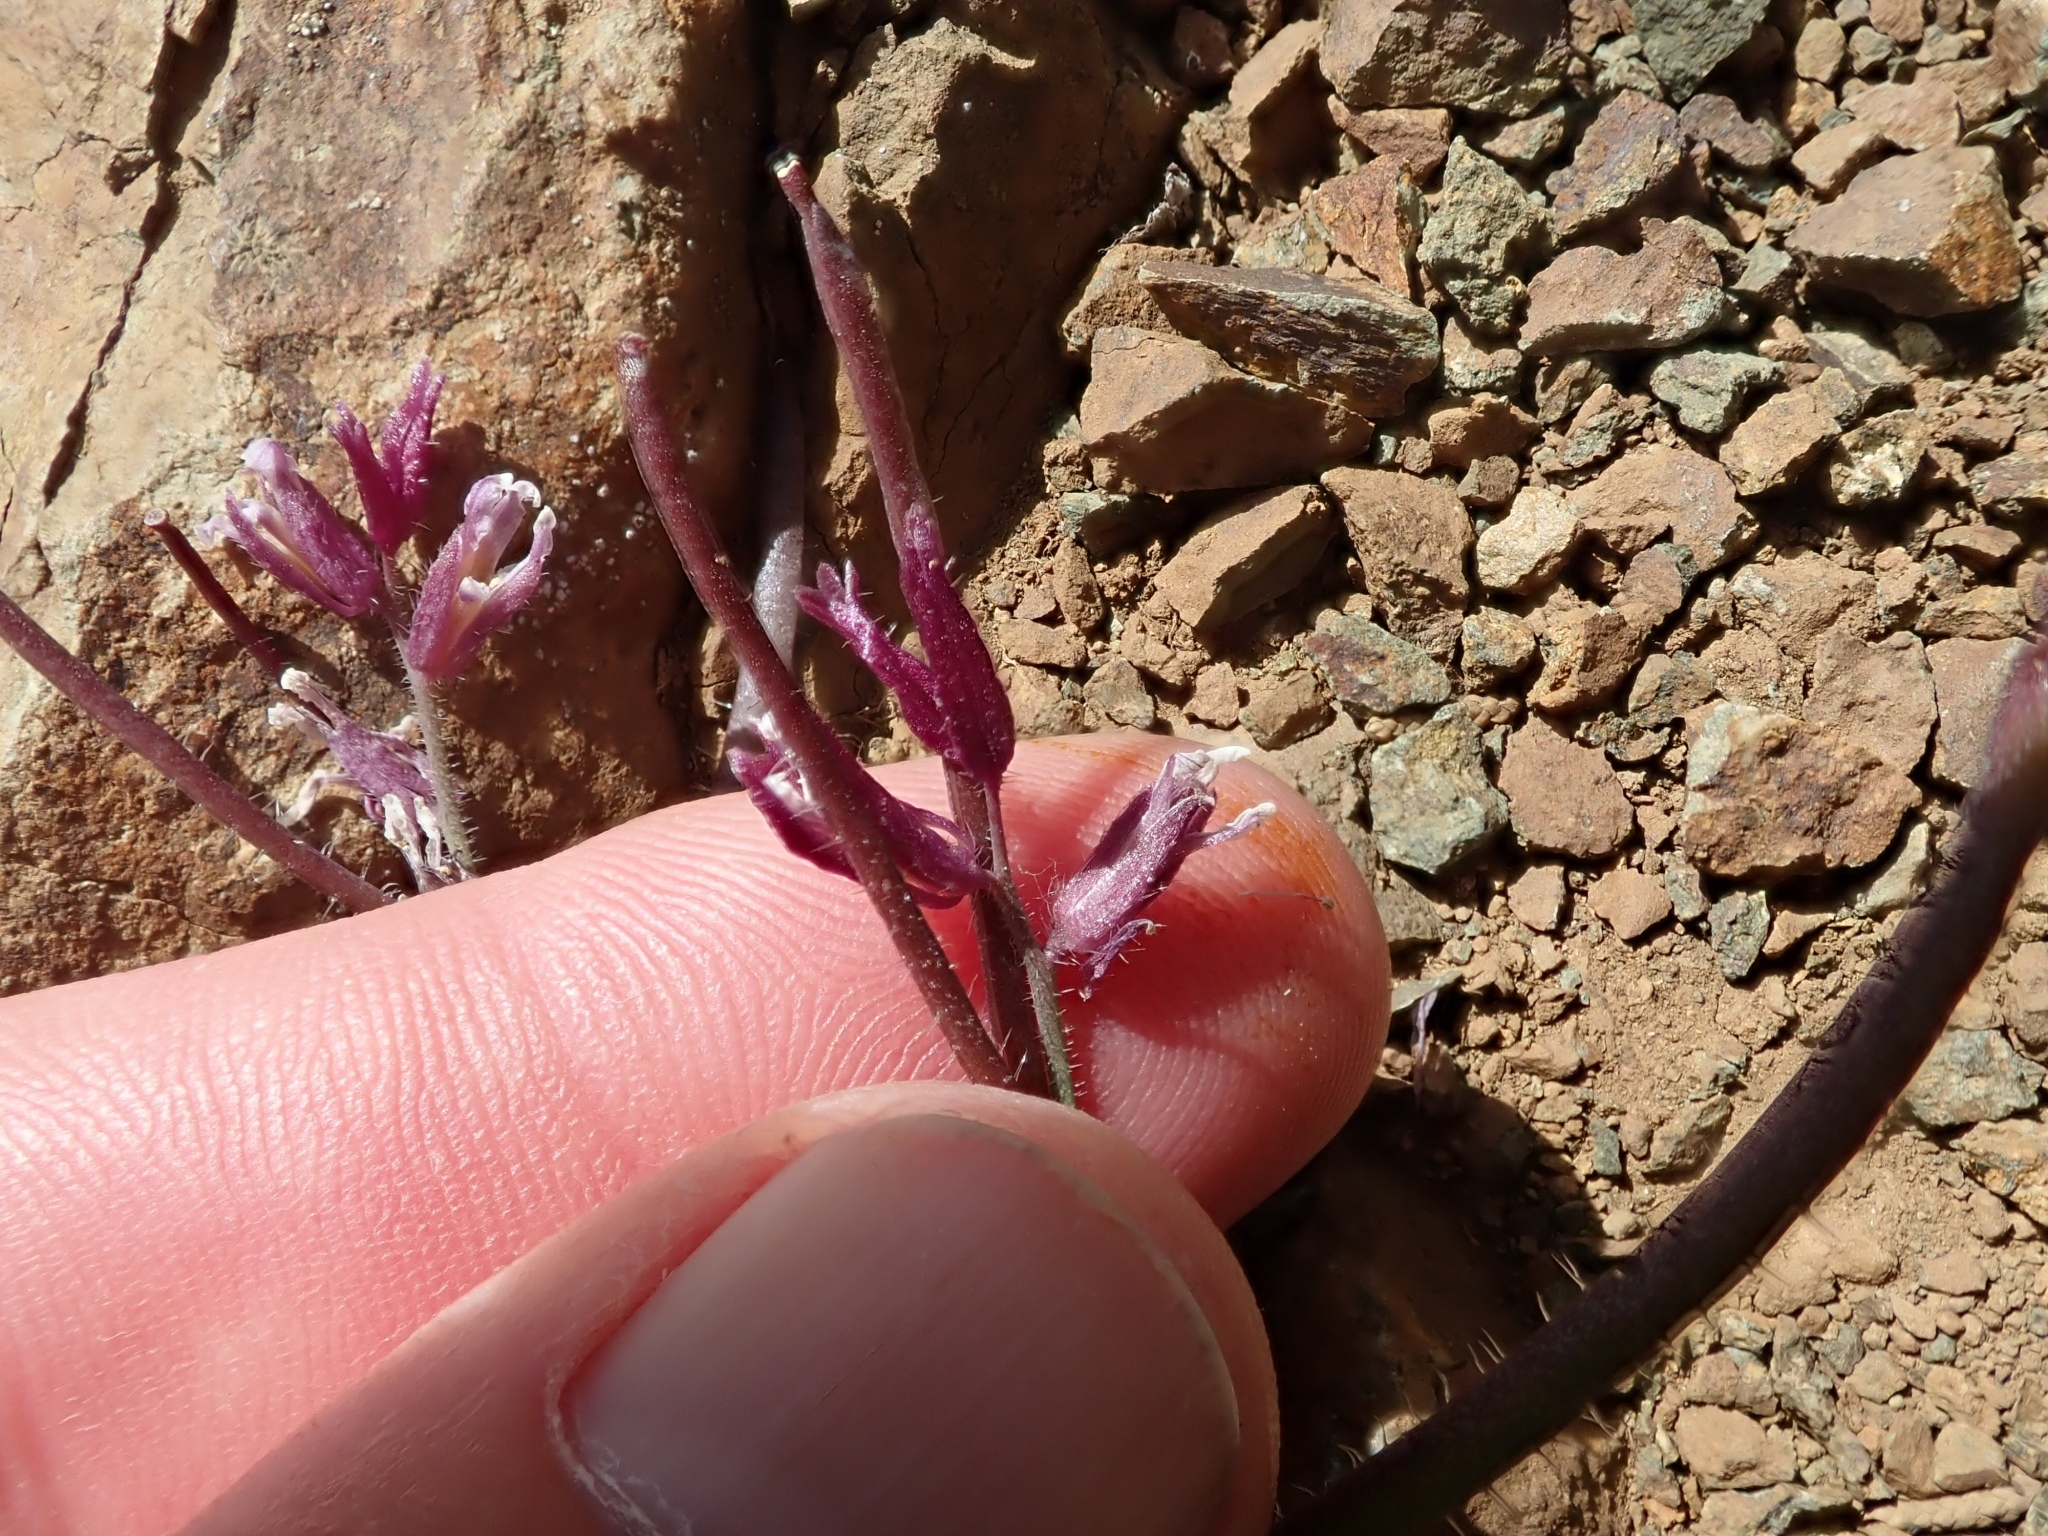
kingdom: Plantae
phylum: Tracheophyta
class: Magnoliopsida
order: Brassicales
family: Brassicaceae
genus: Streptanthus
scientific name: Streptanthus hispidus
